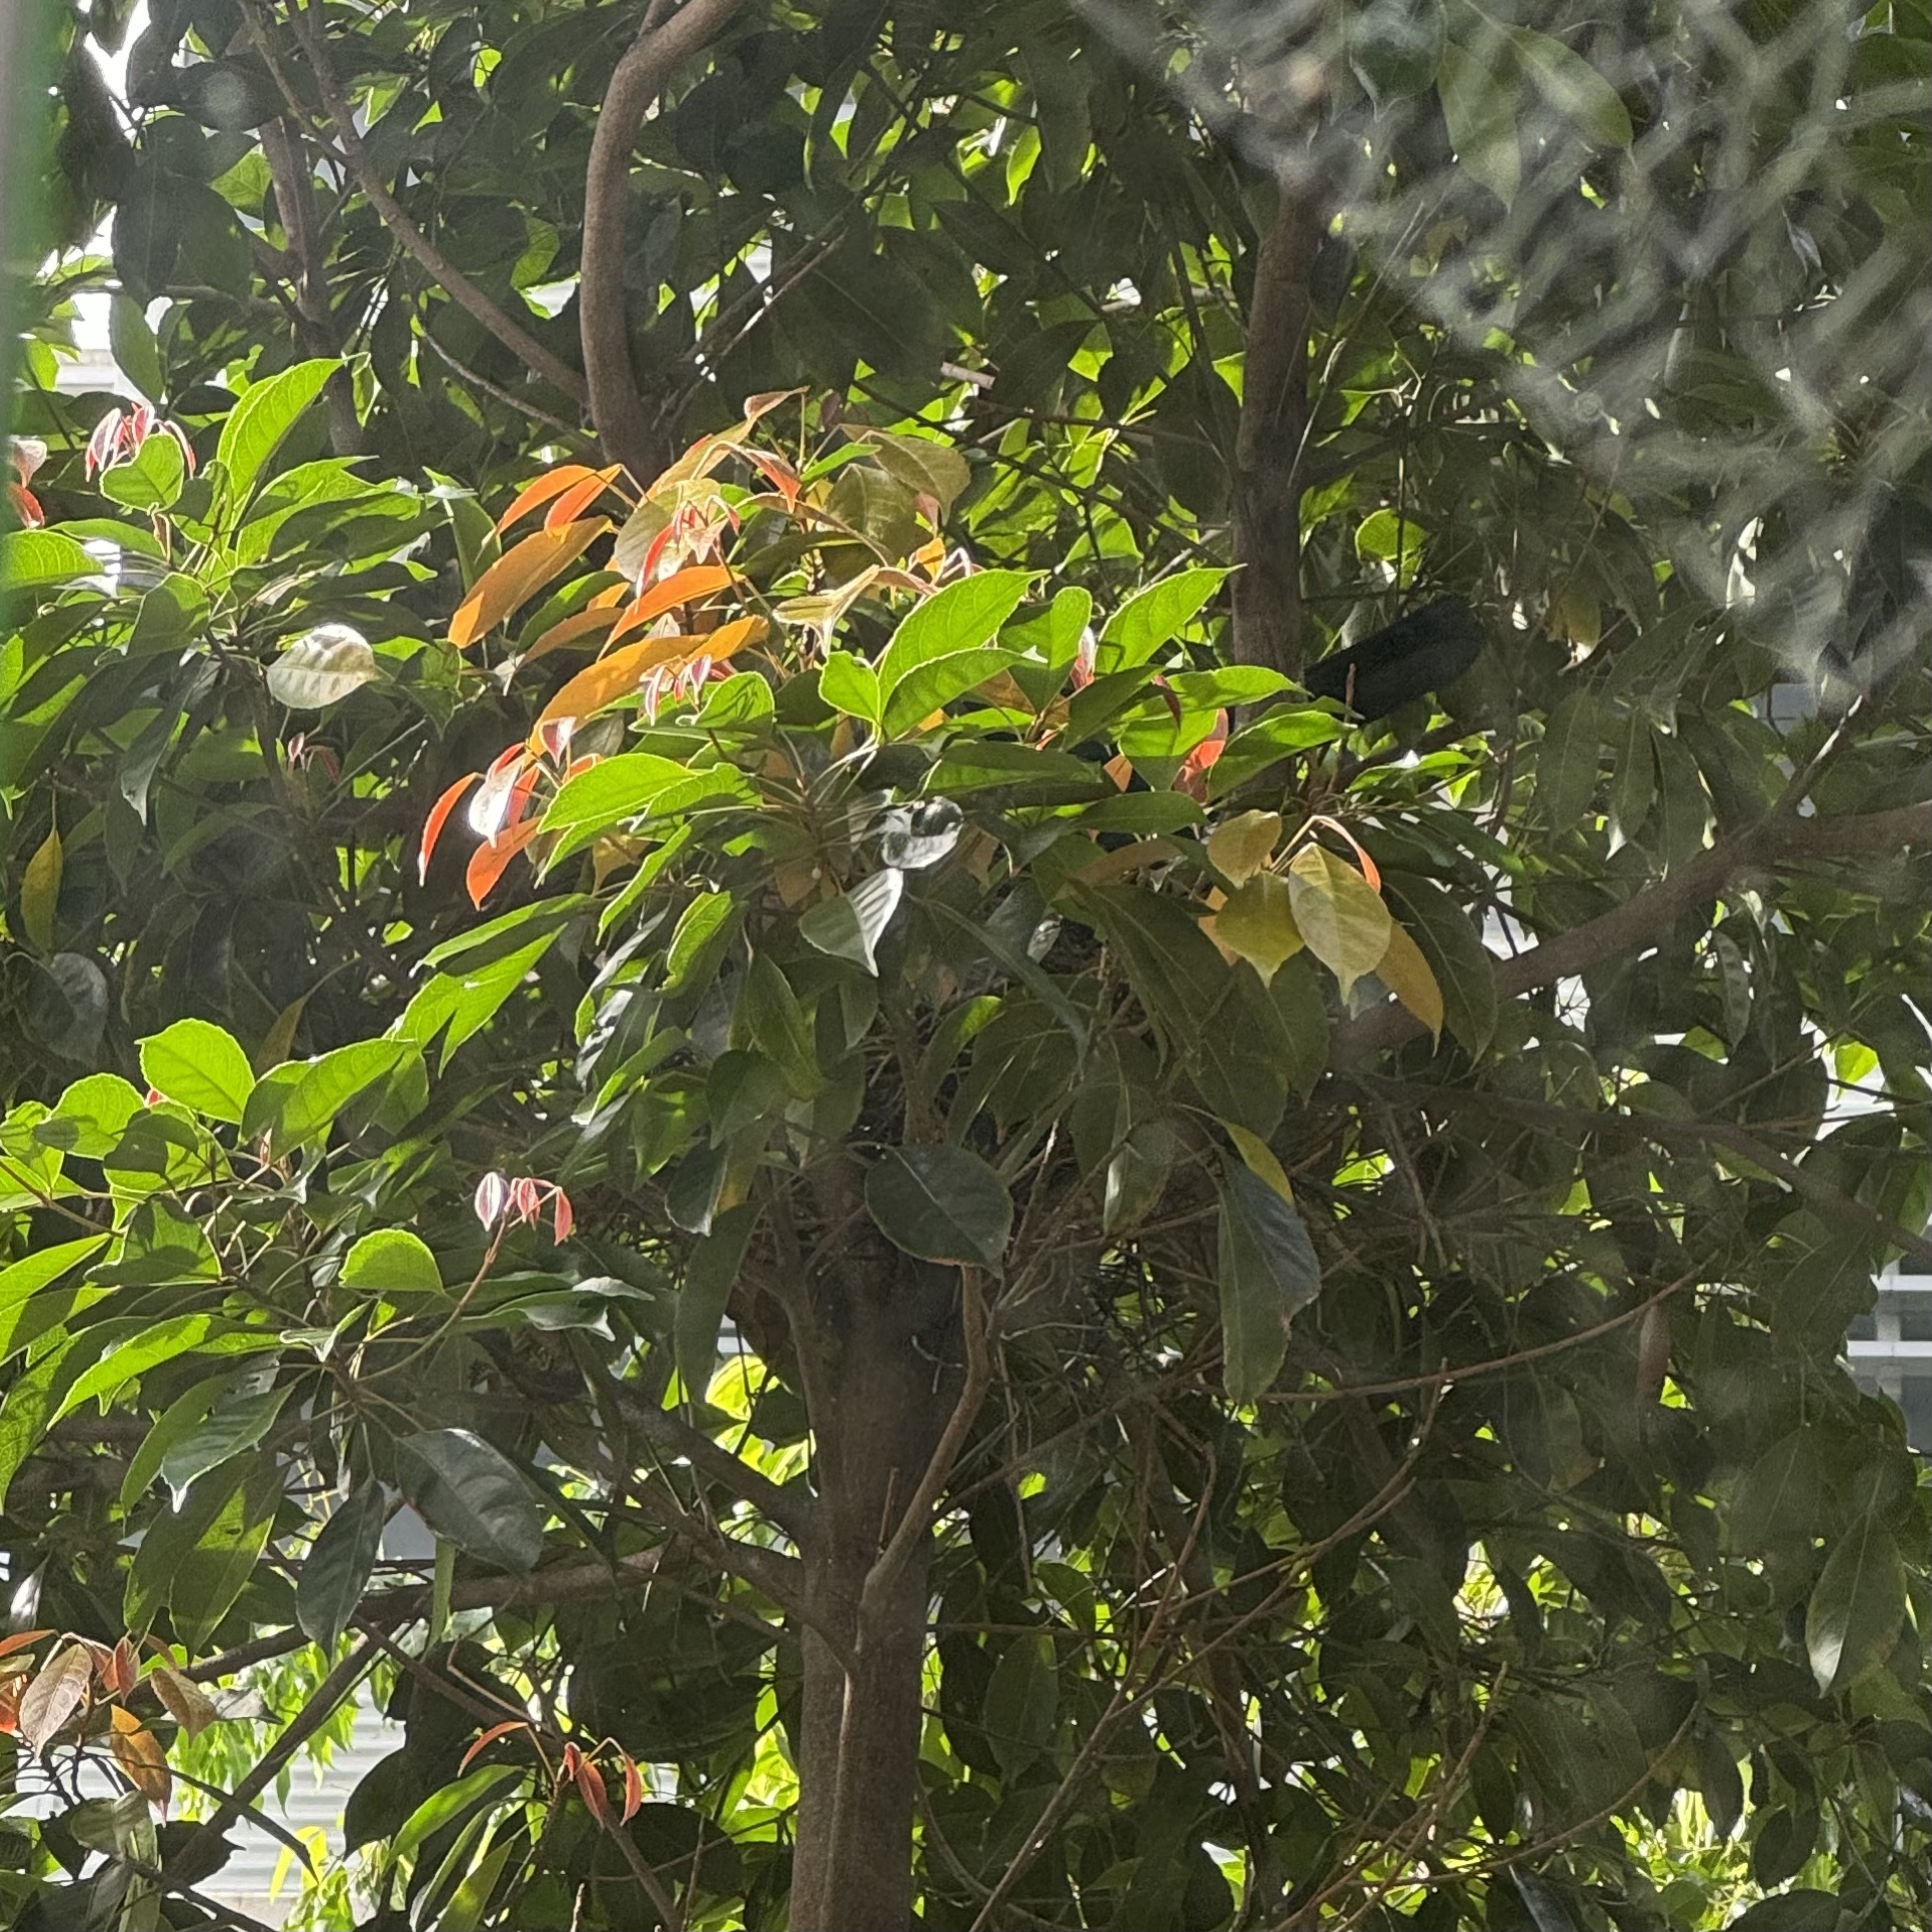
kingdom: Animalia
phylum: Chordata
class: Aves
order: Passeriformes
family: Corvidae
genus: Corvus
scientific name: Corvus orru
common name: Torresian crow
